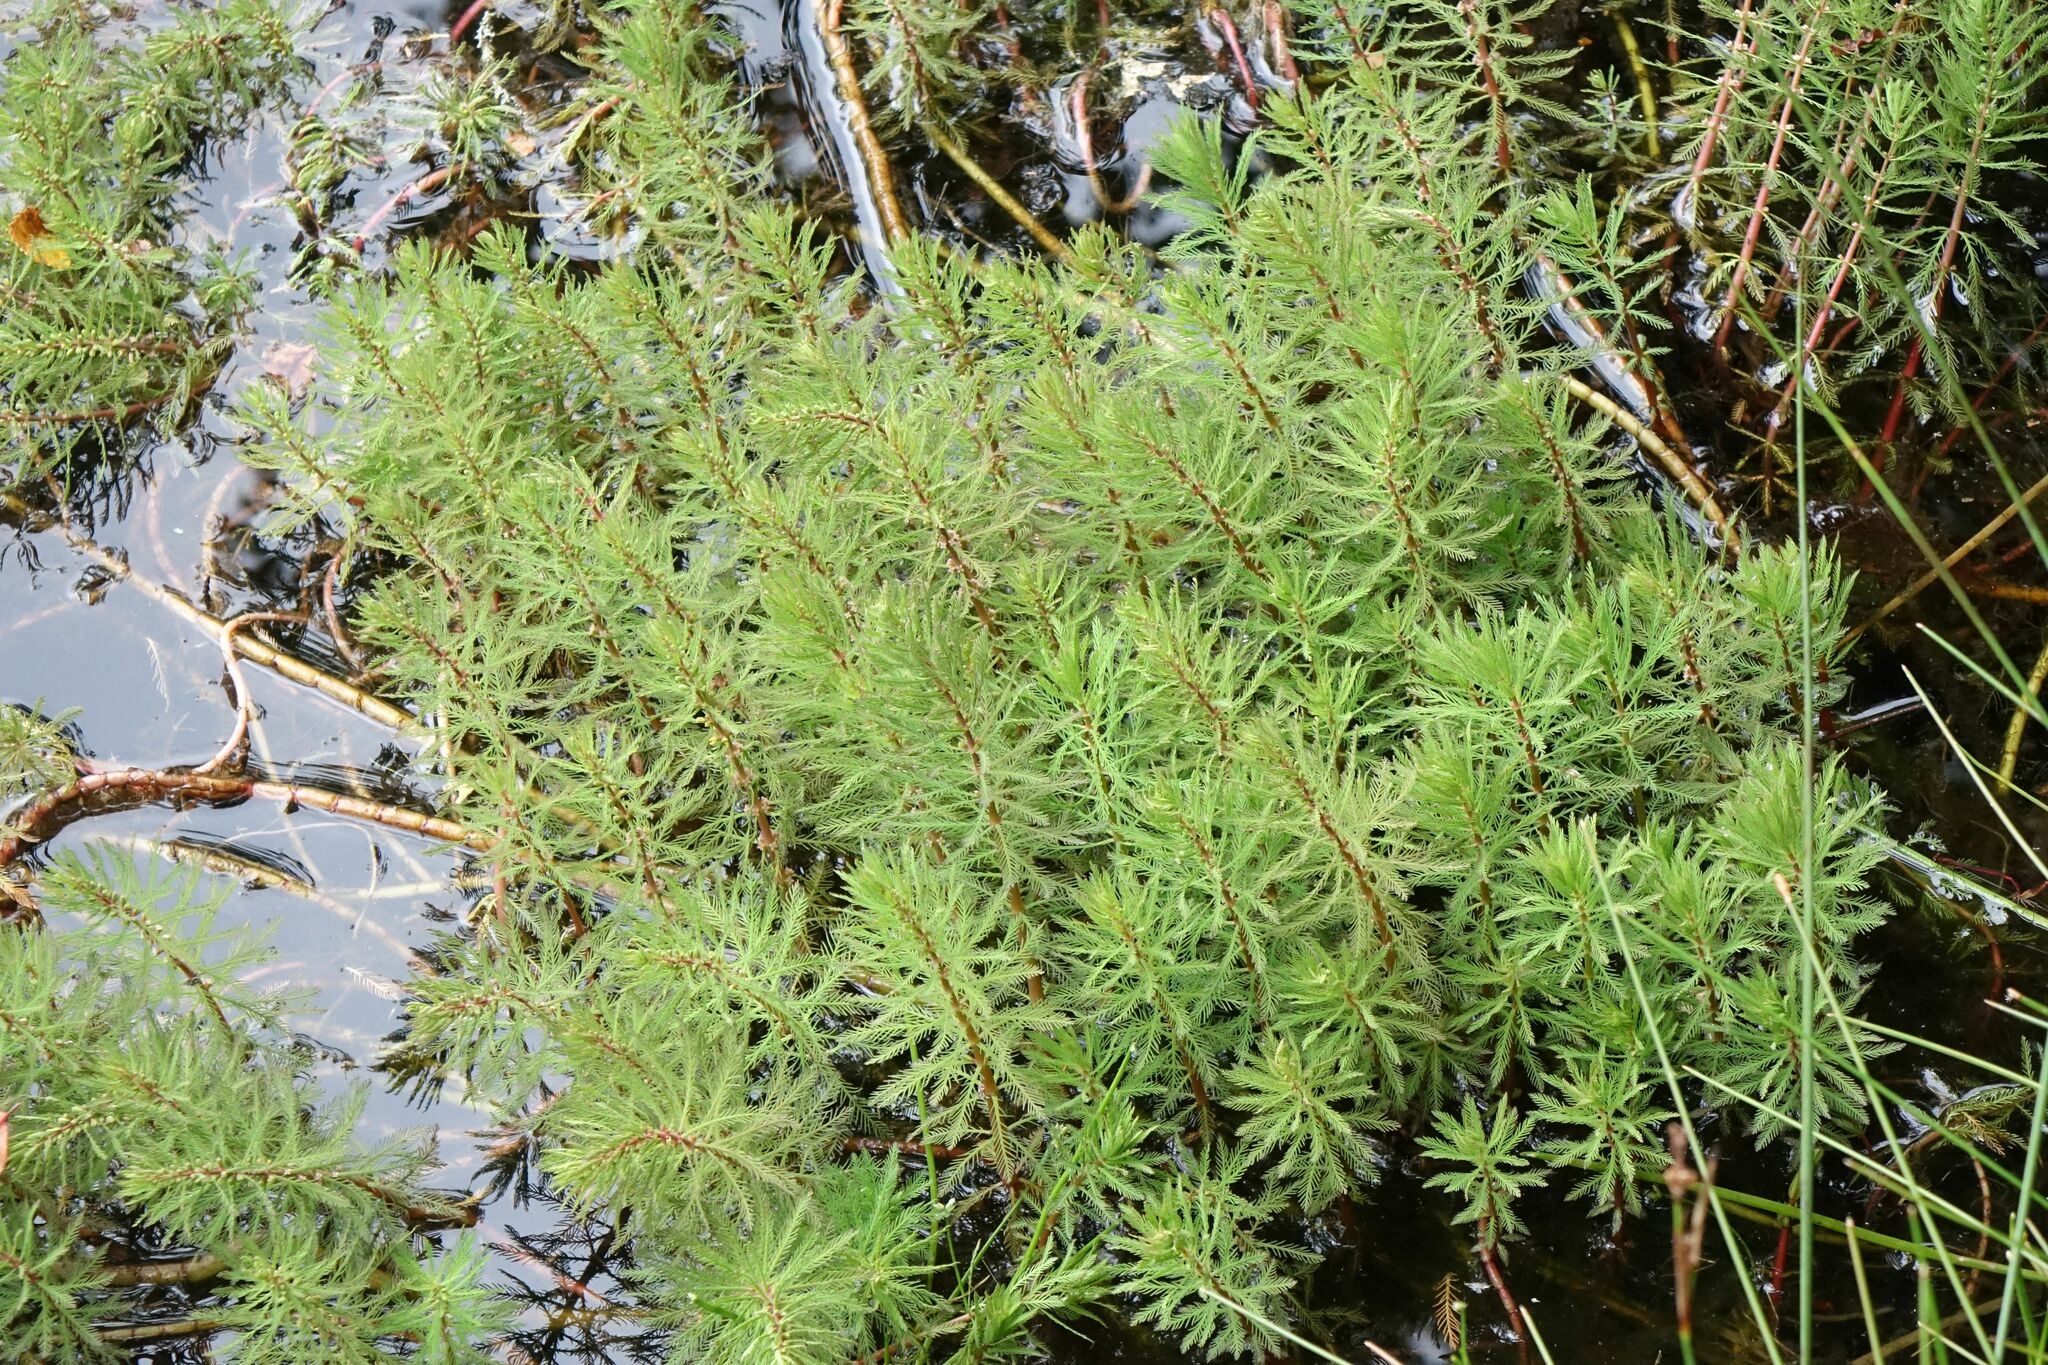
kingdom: Plantae
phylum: Tracheophyta
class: Magnoliopsida
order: Saxifragales
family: Haloragaceae
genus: Myriophyllum
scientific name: Myriophyllum robustum
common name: Stout water milfoil
